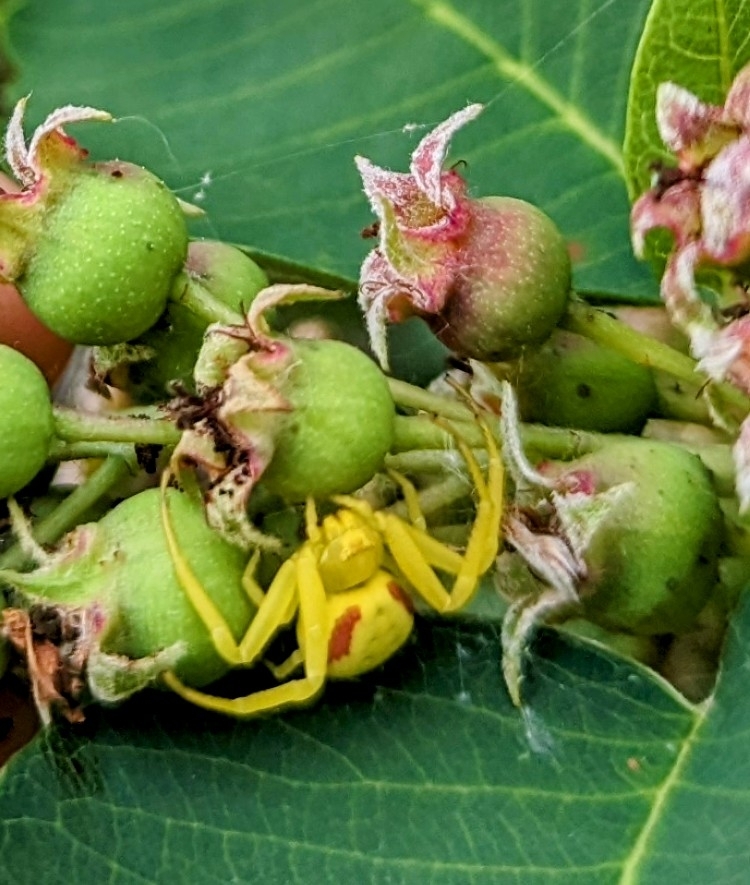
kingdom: Animalia
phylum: Arthropoda
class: Arachnida
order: Araneae
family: Thomisidae
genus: Misumena
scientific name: Misumena vatia
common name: Goldenrod crab spider
